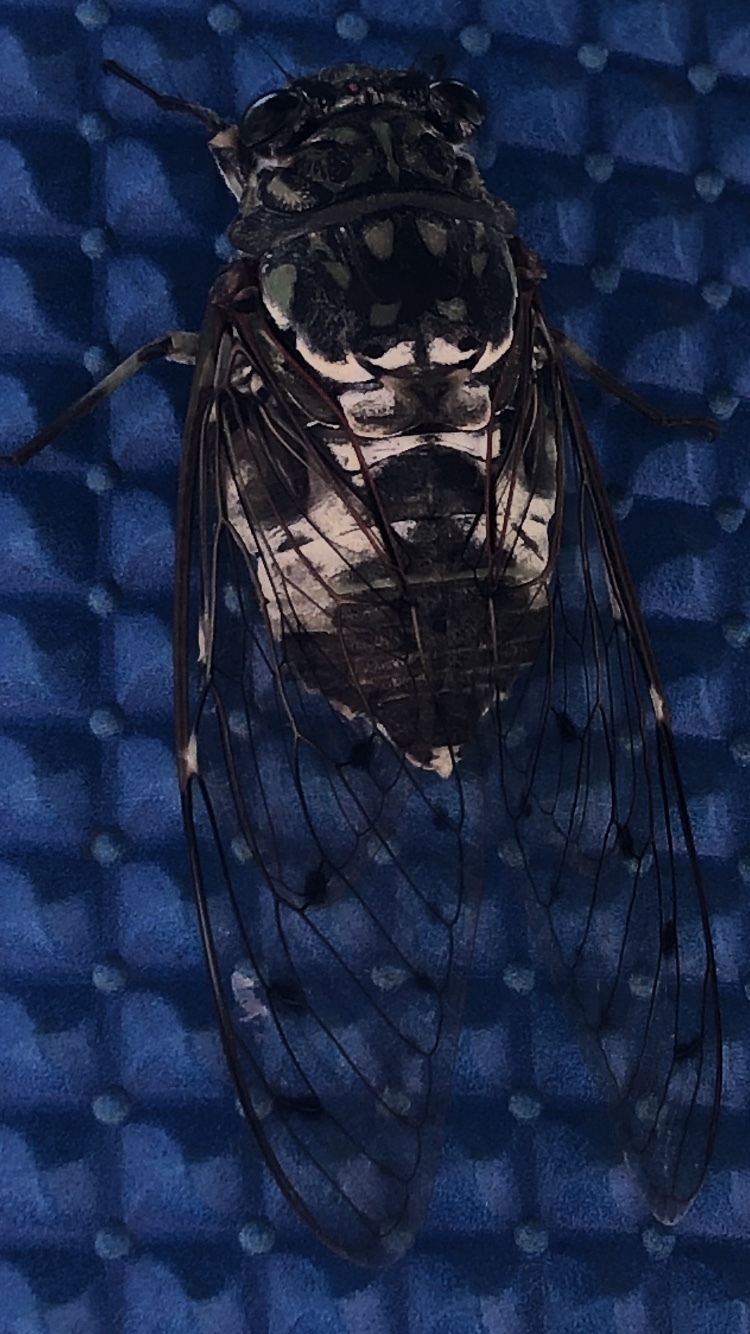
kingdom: Animalia
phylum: Arthropoda
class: Insecta
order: Hemiptera
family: Cicadidae
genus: Hyalessa
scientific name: Hyalessa maculaticollis
